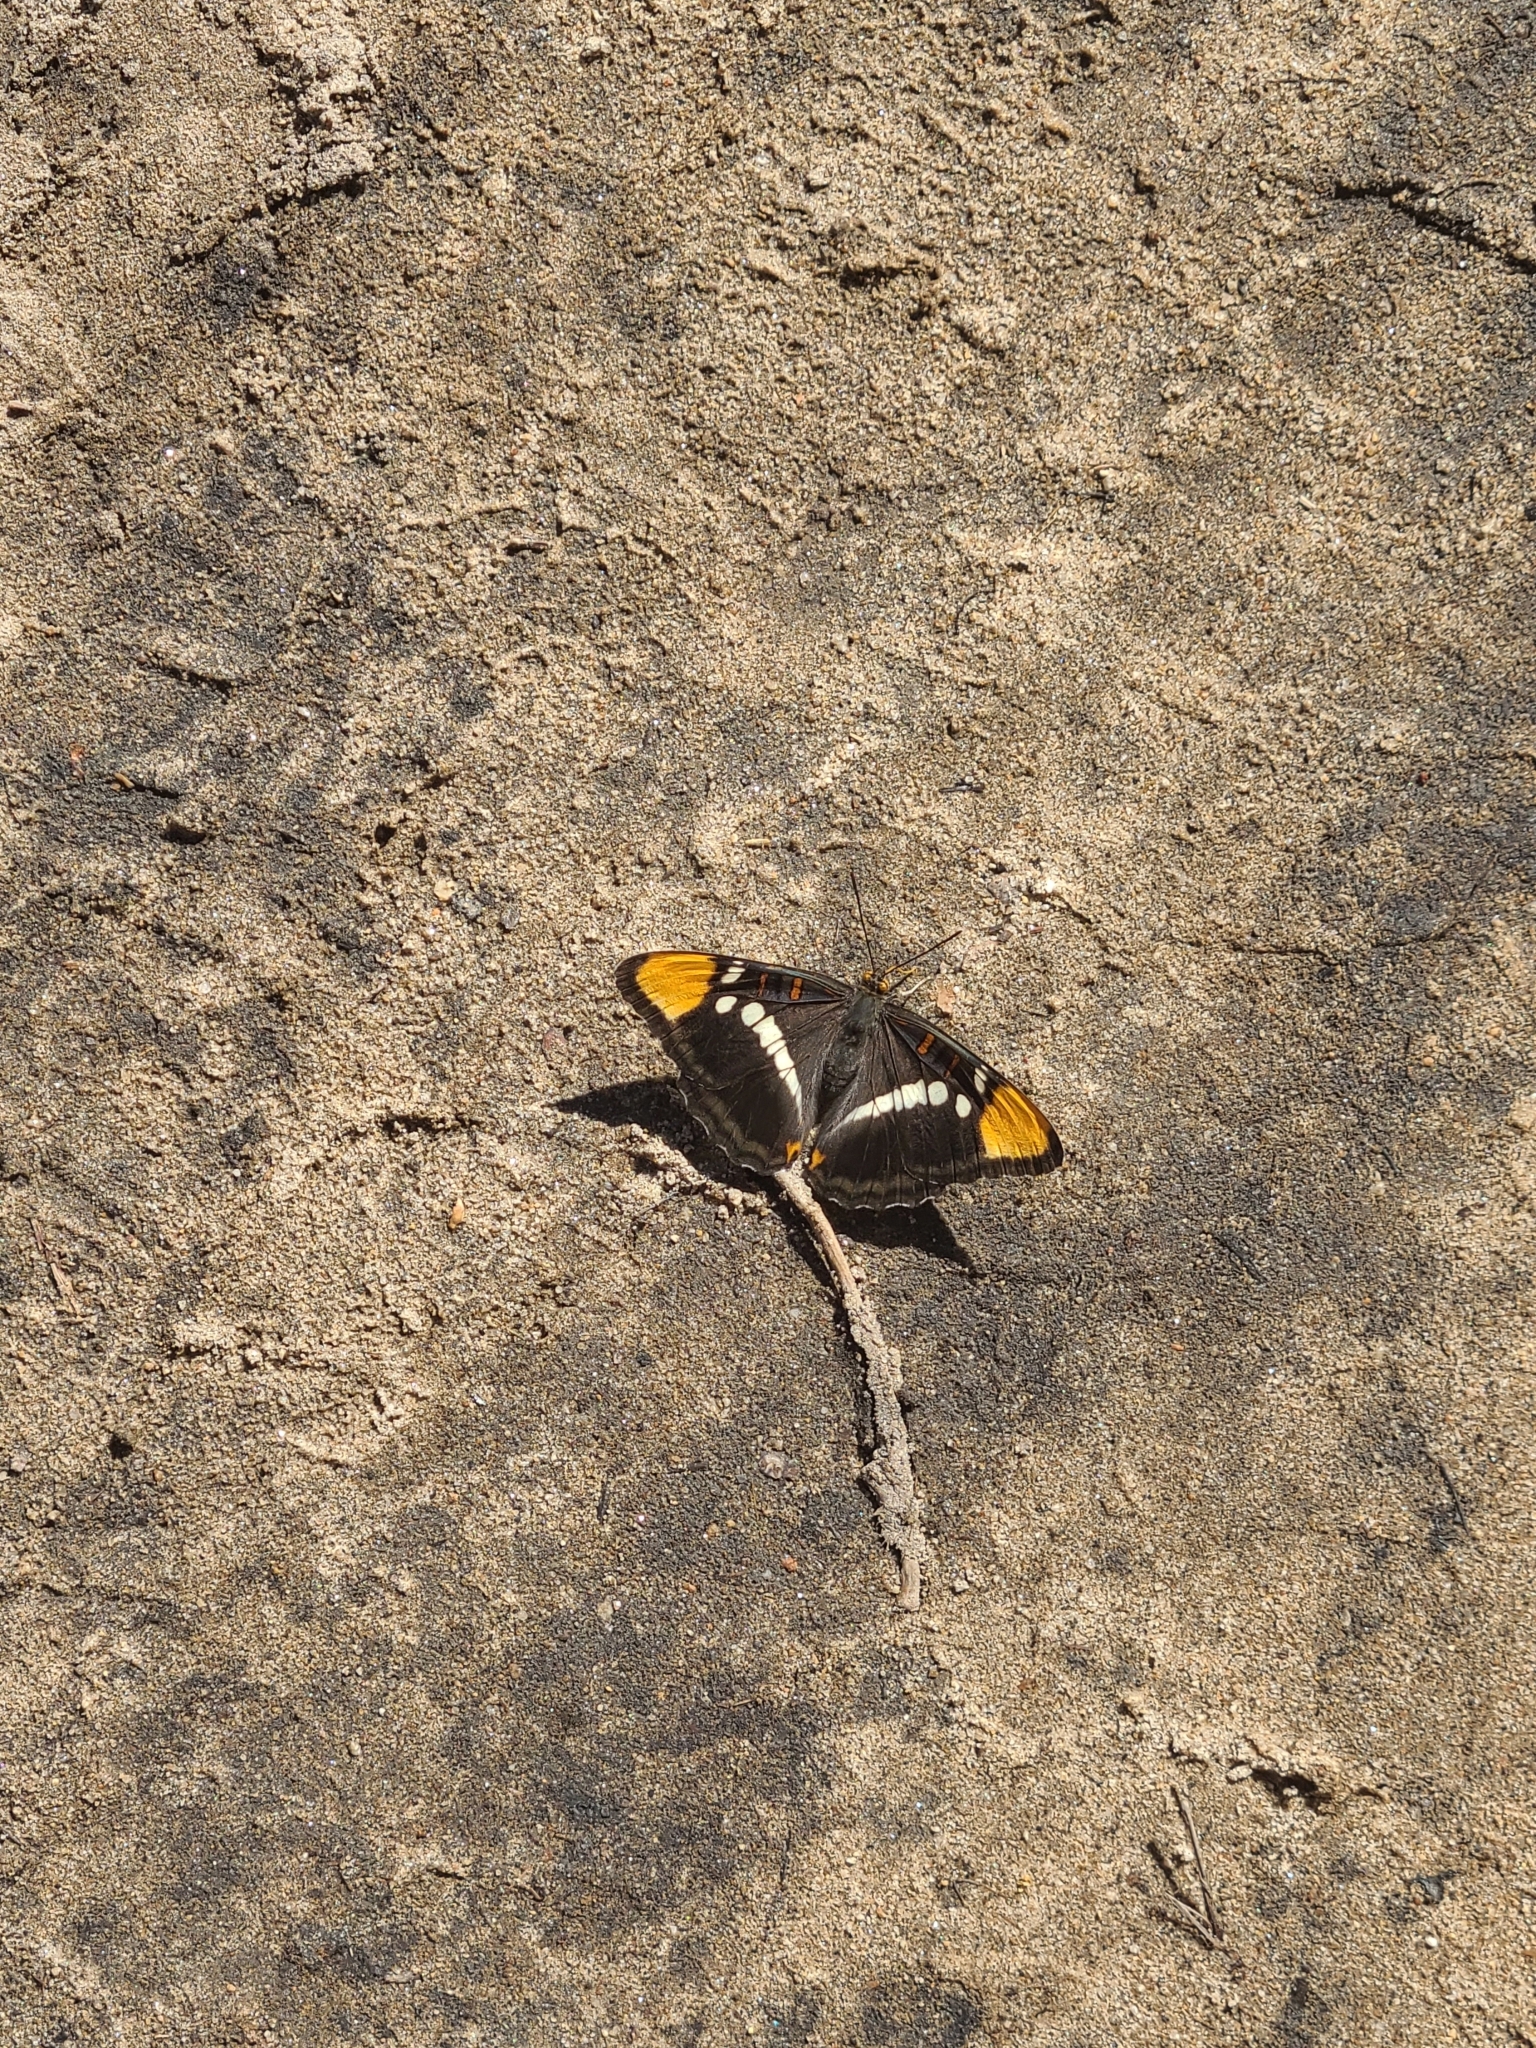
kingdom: Animalia
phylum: Arthropoda
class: Insecta
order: Lepidoptera
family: Nymphalidae
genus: Limenitis
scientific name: Limenitis bredowii
